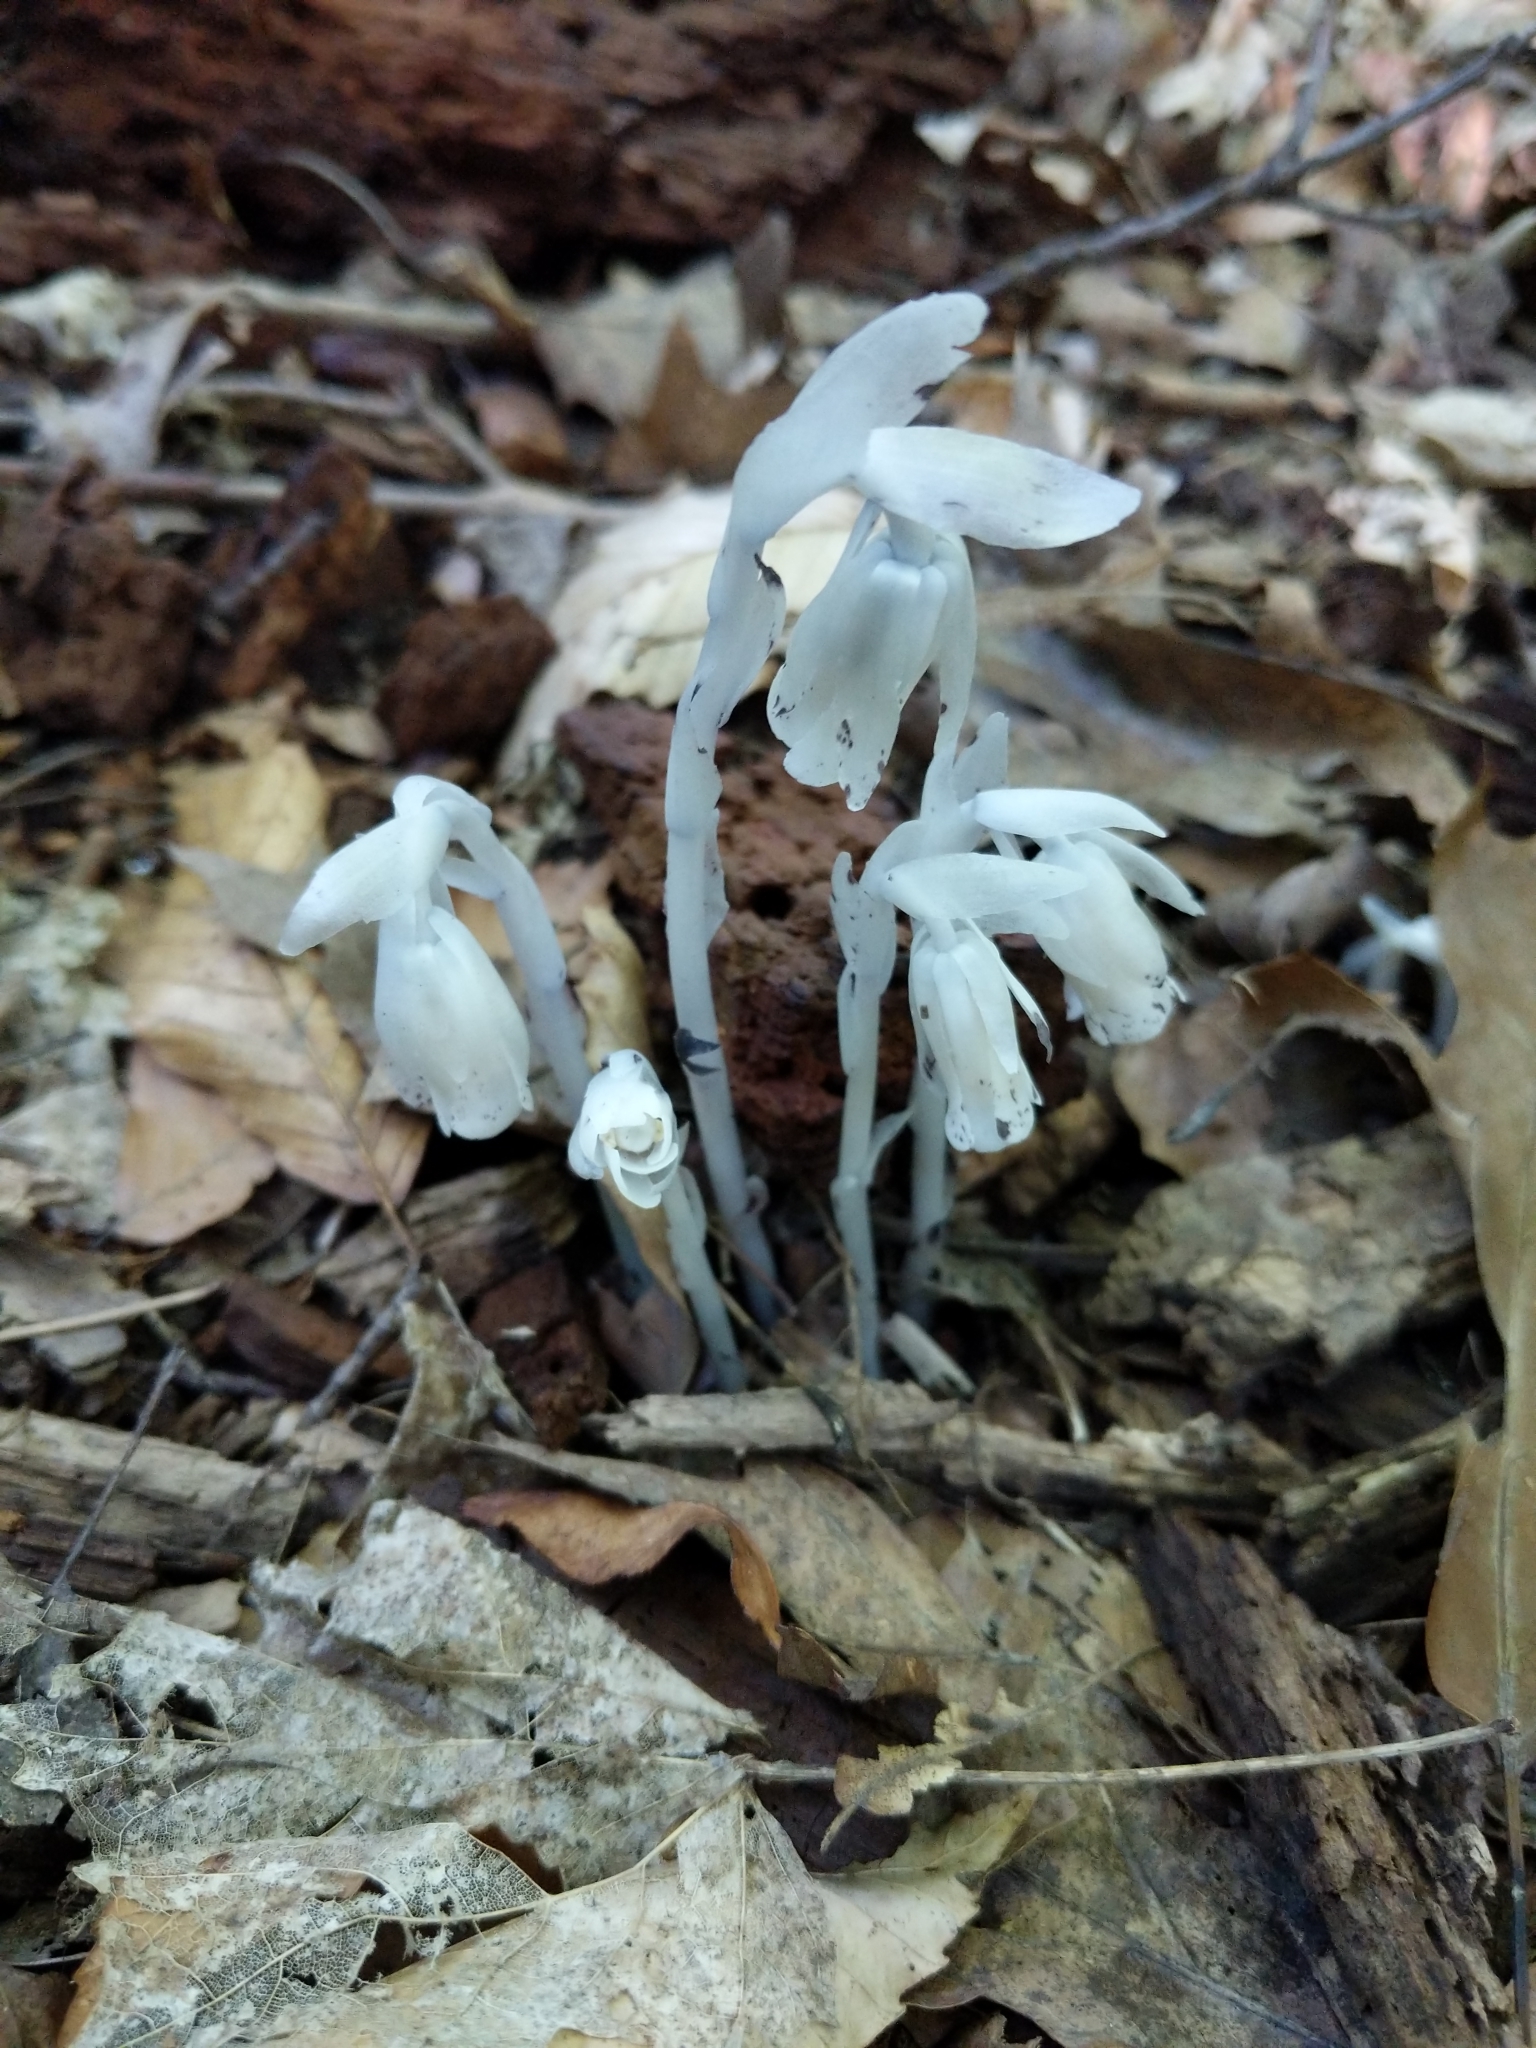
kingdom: Plantae
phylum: Tracheophyta
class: Magnoliopsida
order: Ericales
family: Ericaceae
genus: Monotropa
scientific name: Monotropa uniflora
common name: Convulsion root
